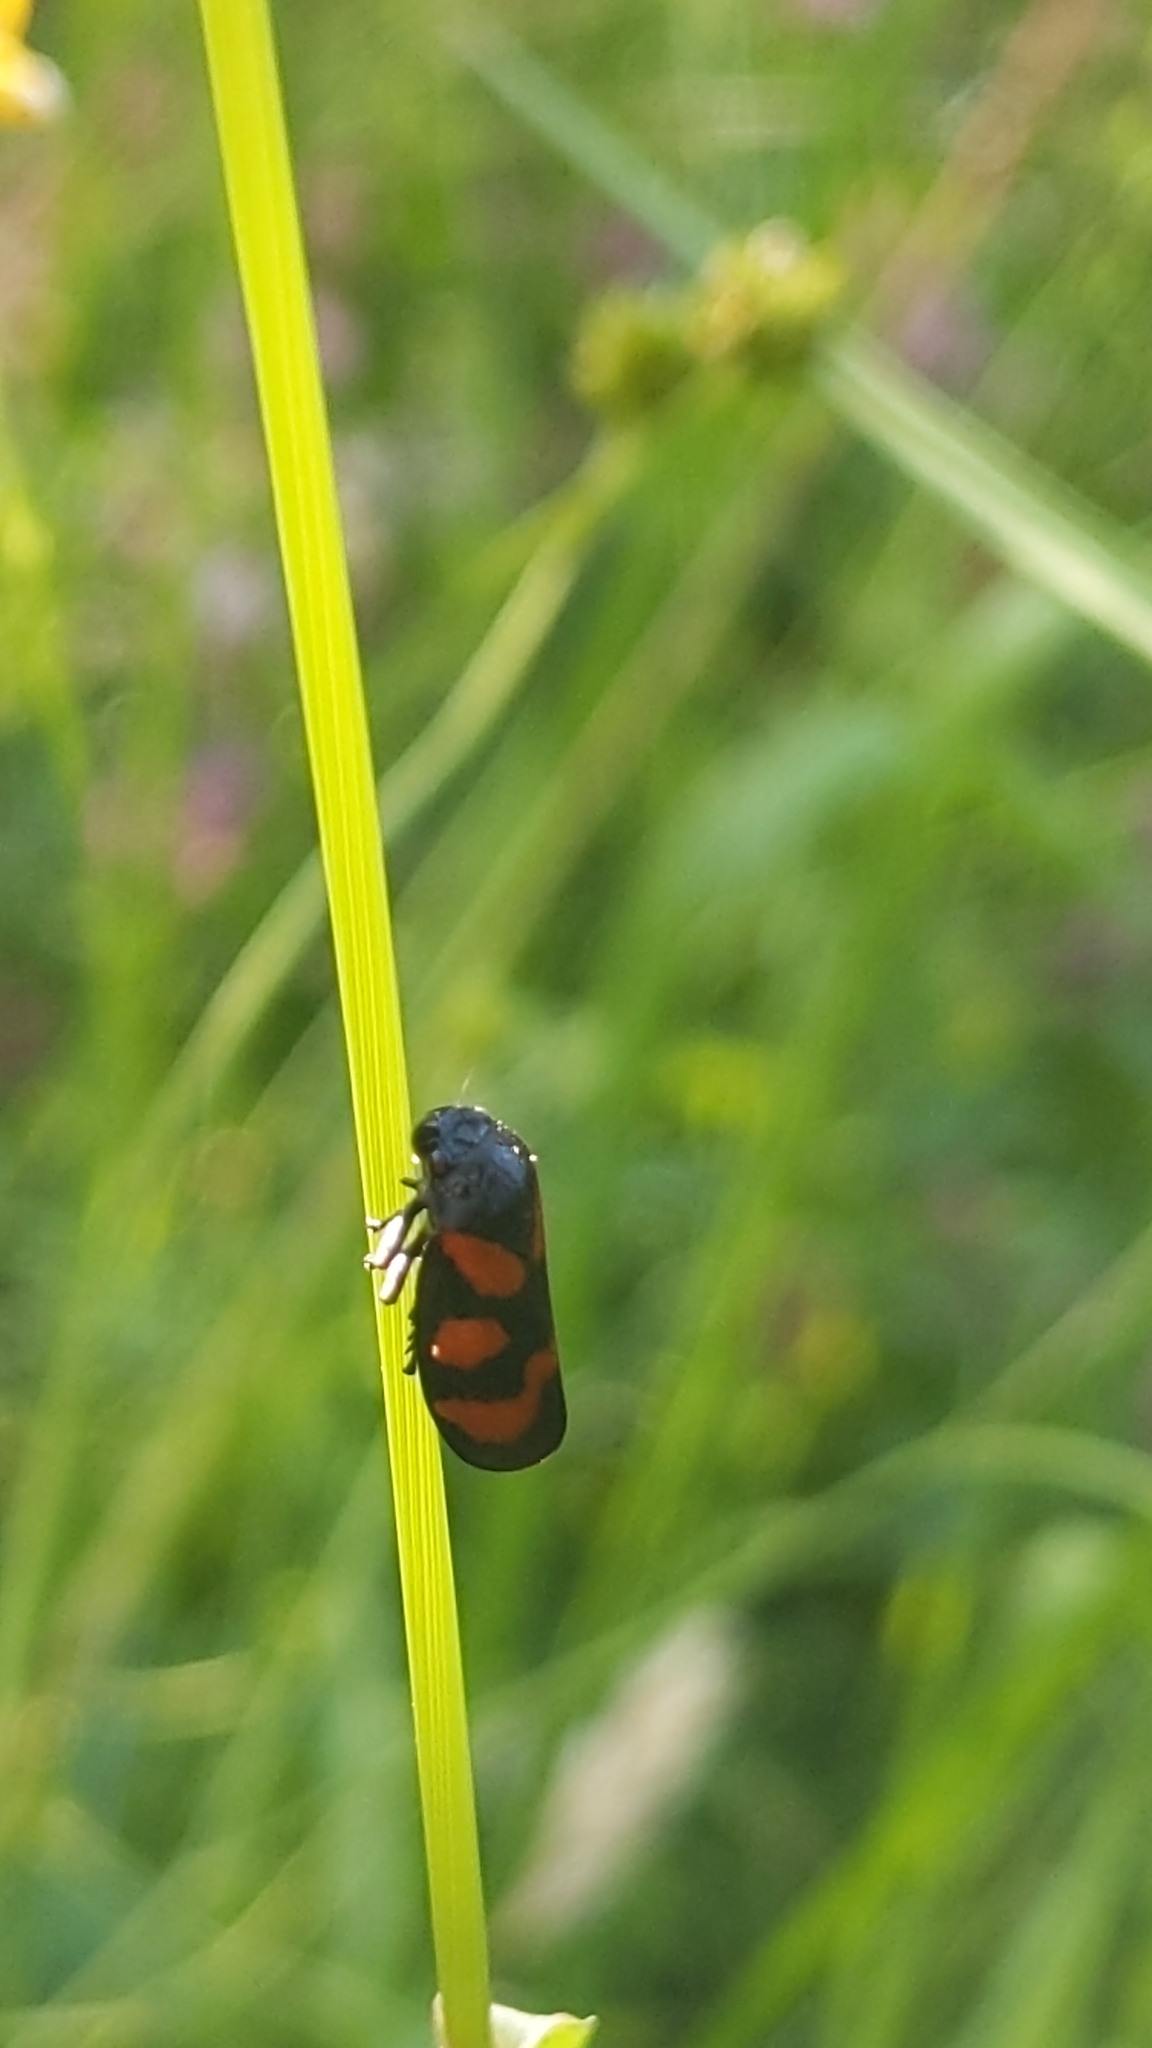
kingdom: Animalia
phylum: Arthropoda
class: Insecta
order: Hemiptera
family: Cercopidae
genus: Cercopis
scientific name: Cercopis vulnerata
